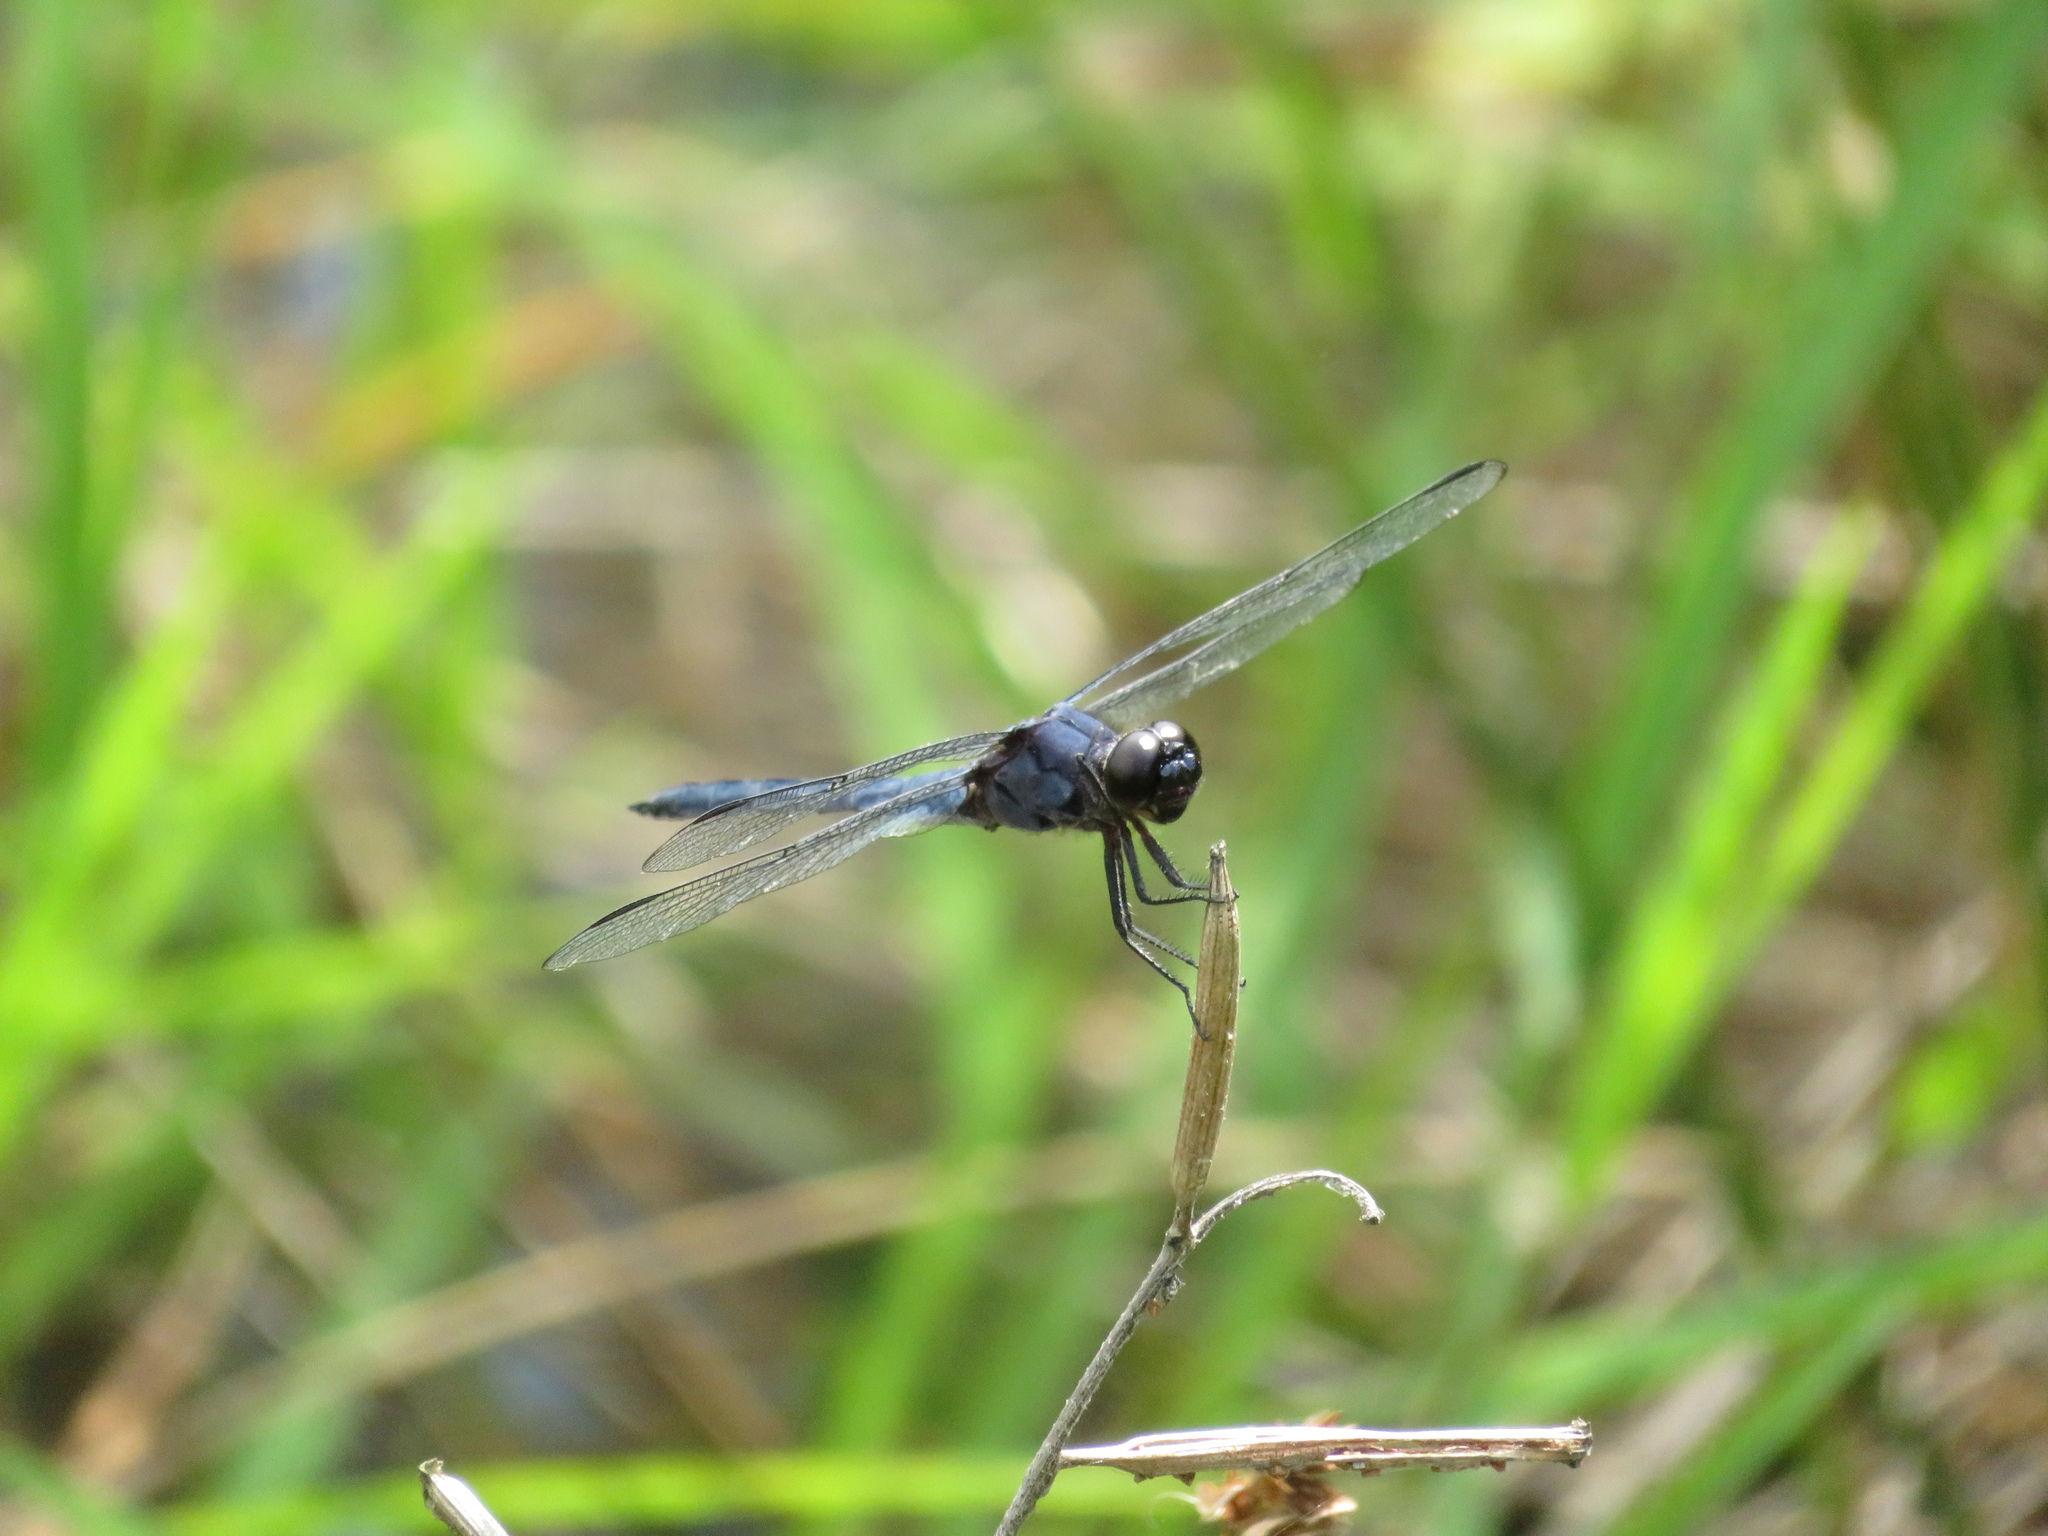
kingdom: Animalia
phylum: Arthropoda
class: Insecta
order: Odonata
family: Libellulidae
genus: Libellula
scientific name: Libellula incesta
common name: Slaty skimmer
